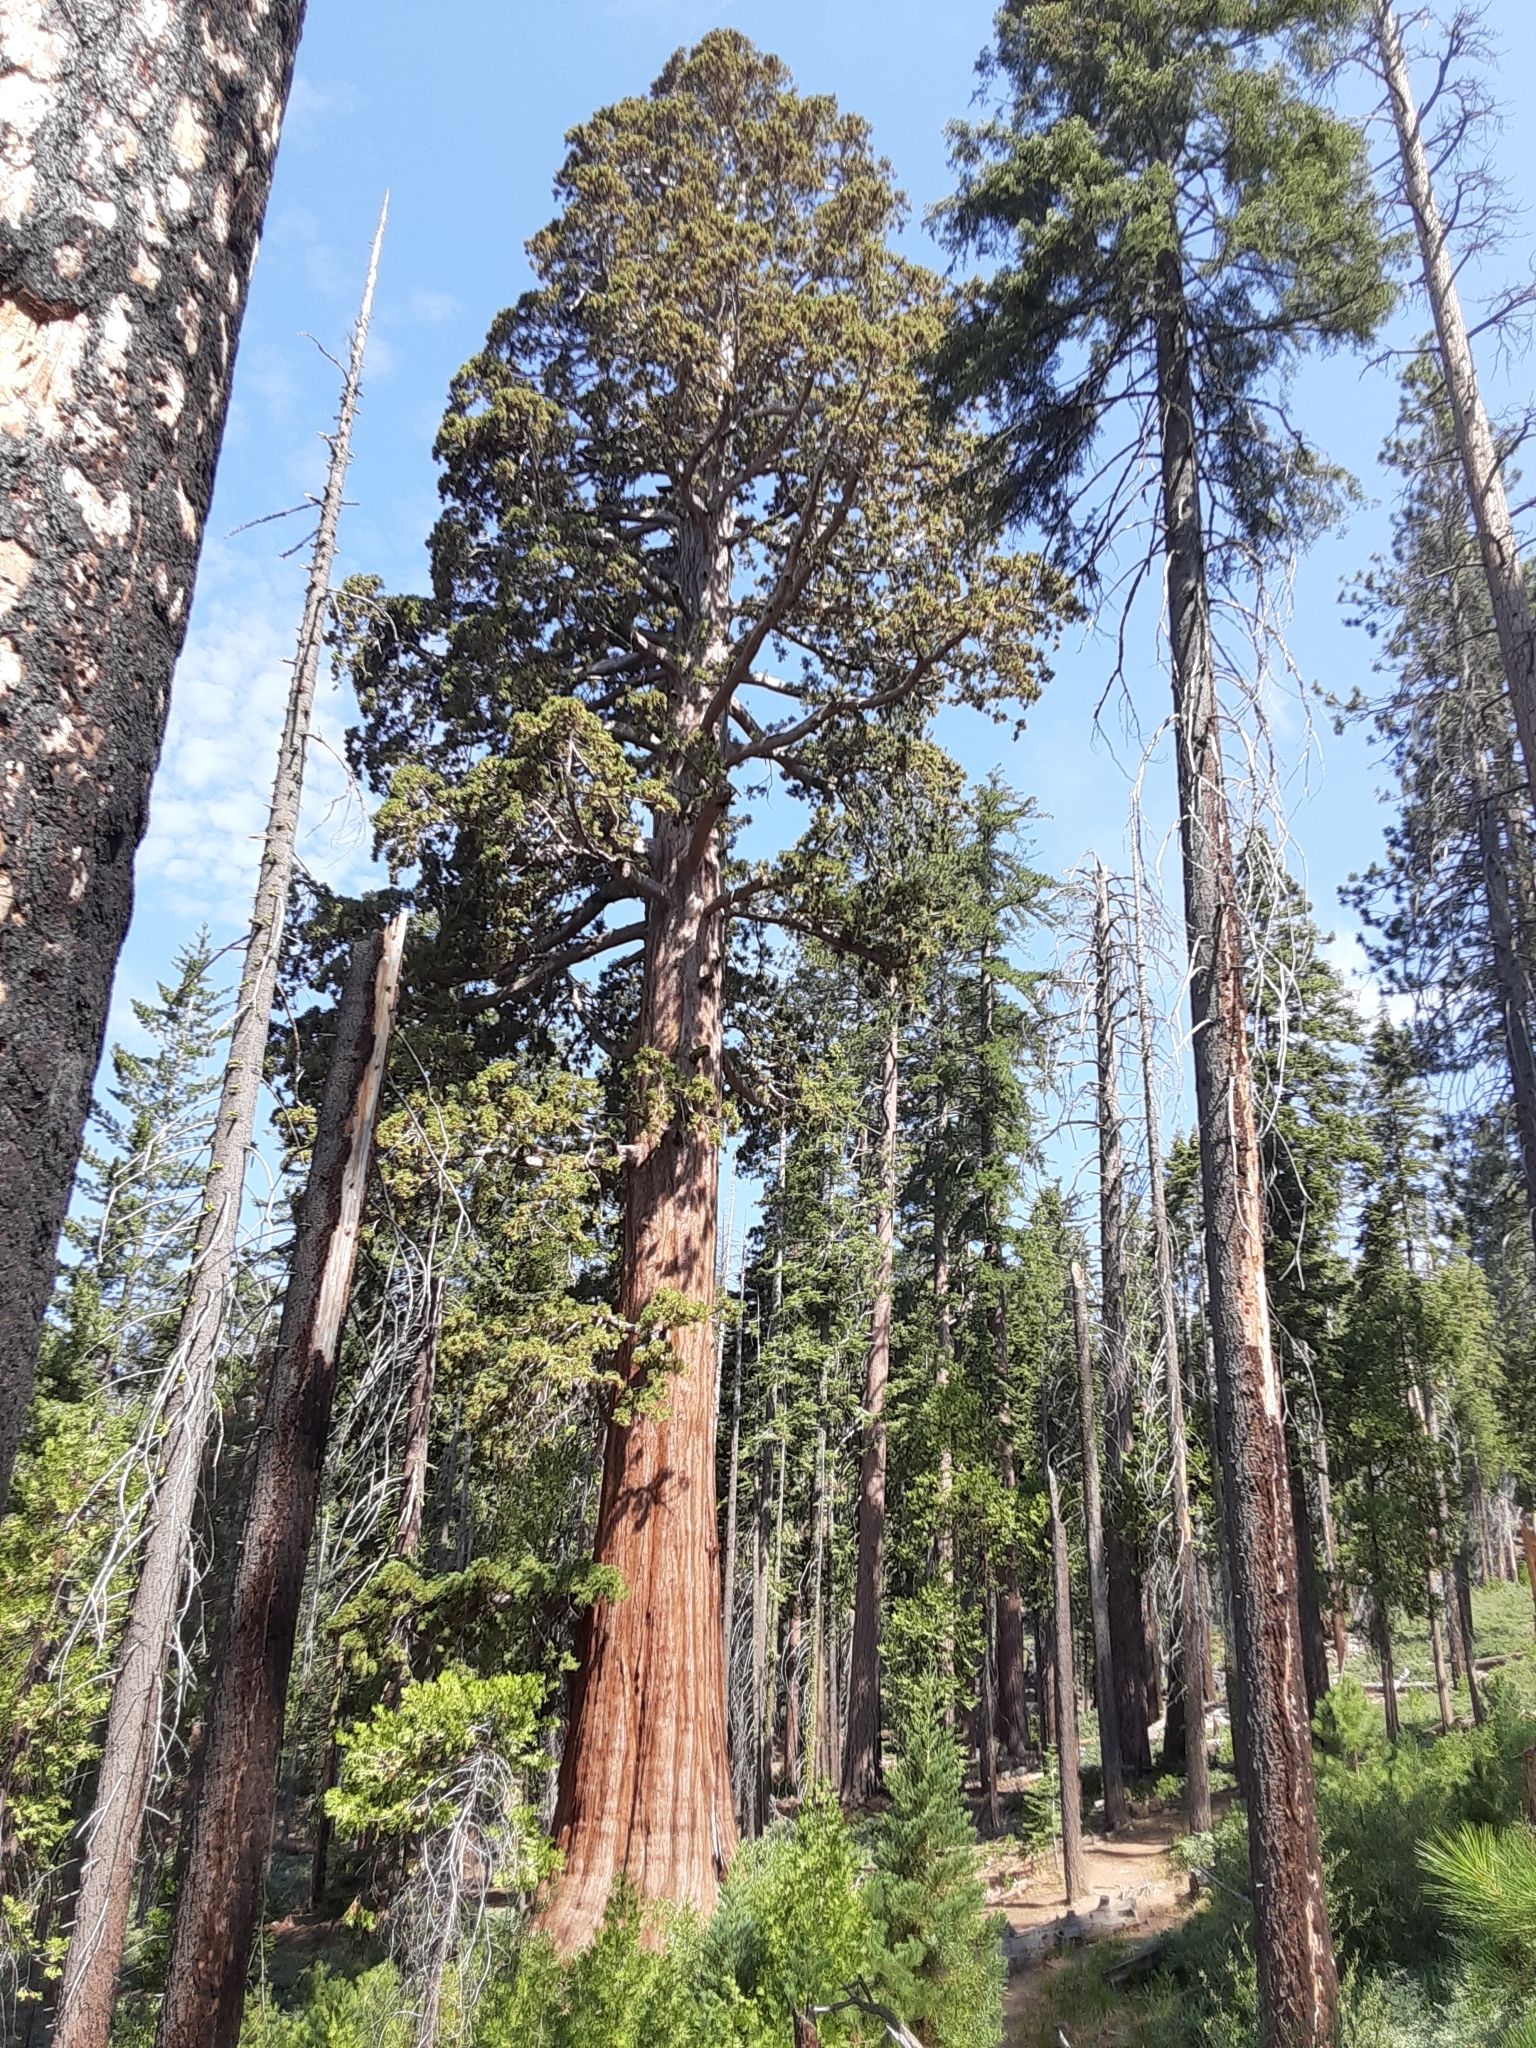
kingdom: Plantae
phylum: Tracheophyta
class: Pinopsida
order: Pinales
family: Cupressaceae
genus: Sequoiadendron
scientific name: Sequoiadendron giganteum
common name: Wellingtonia
